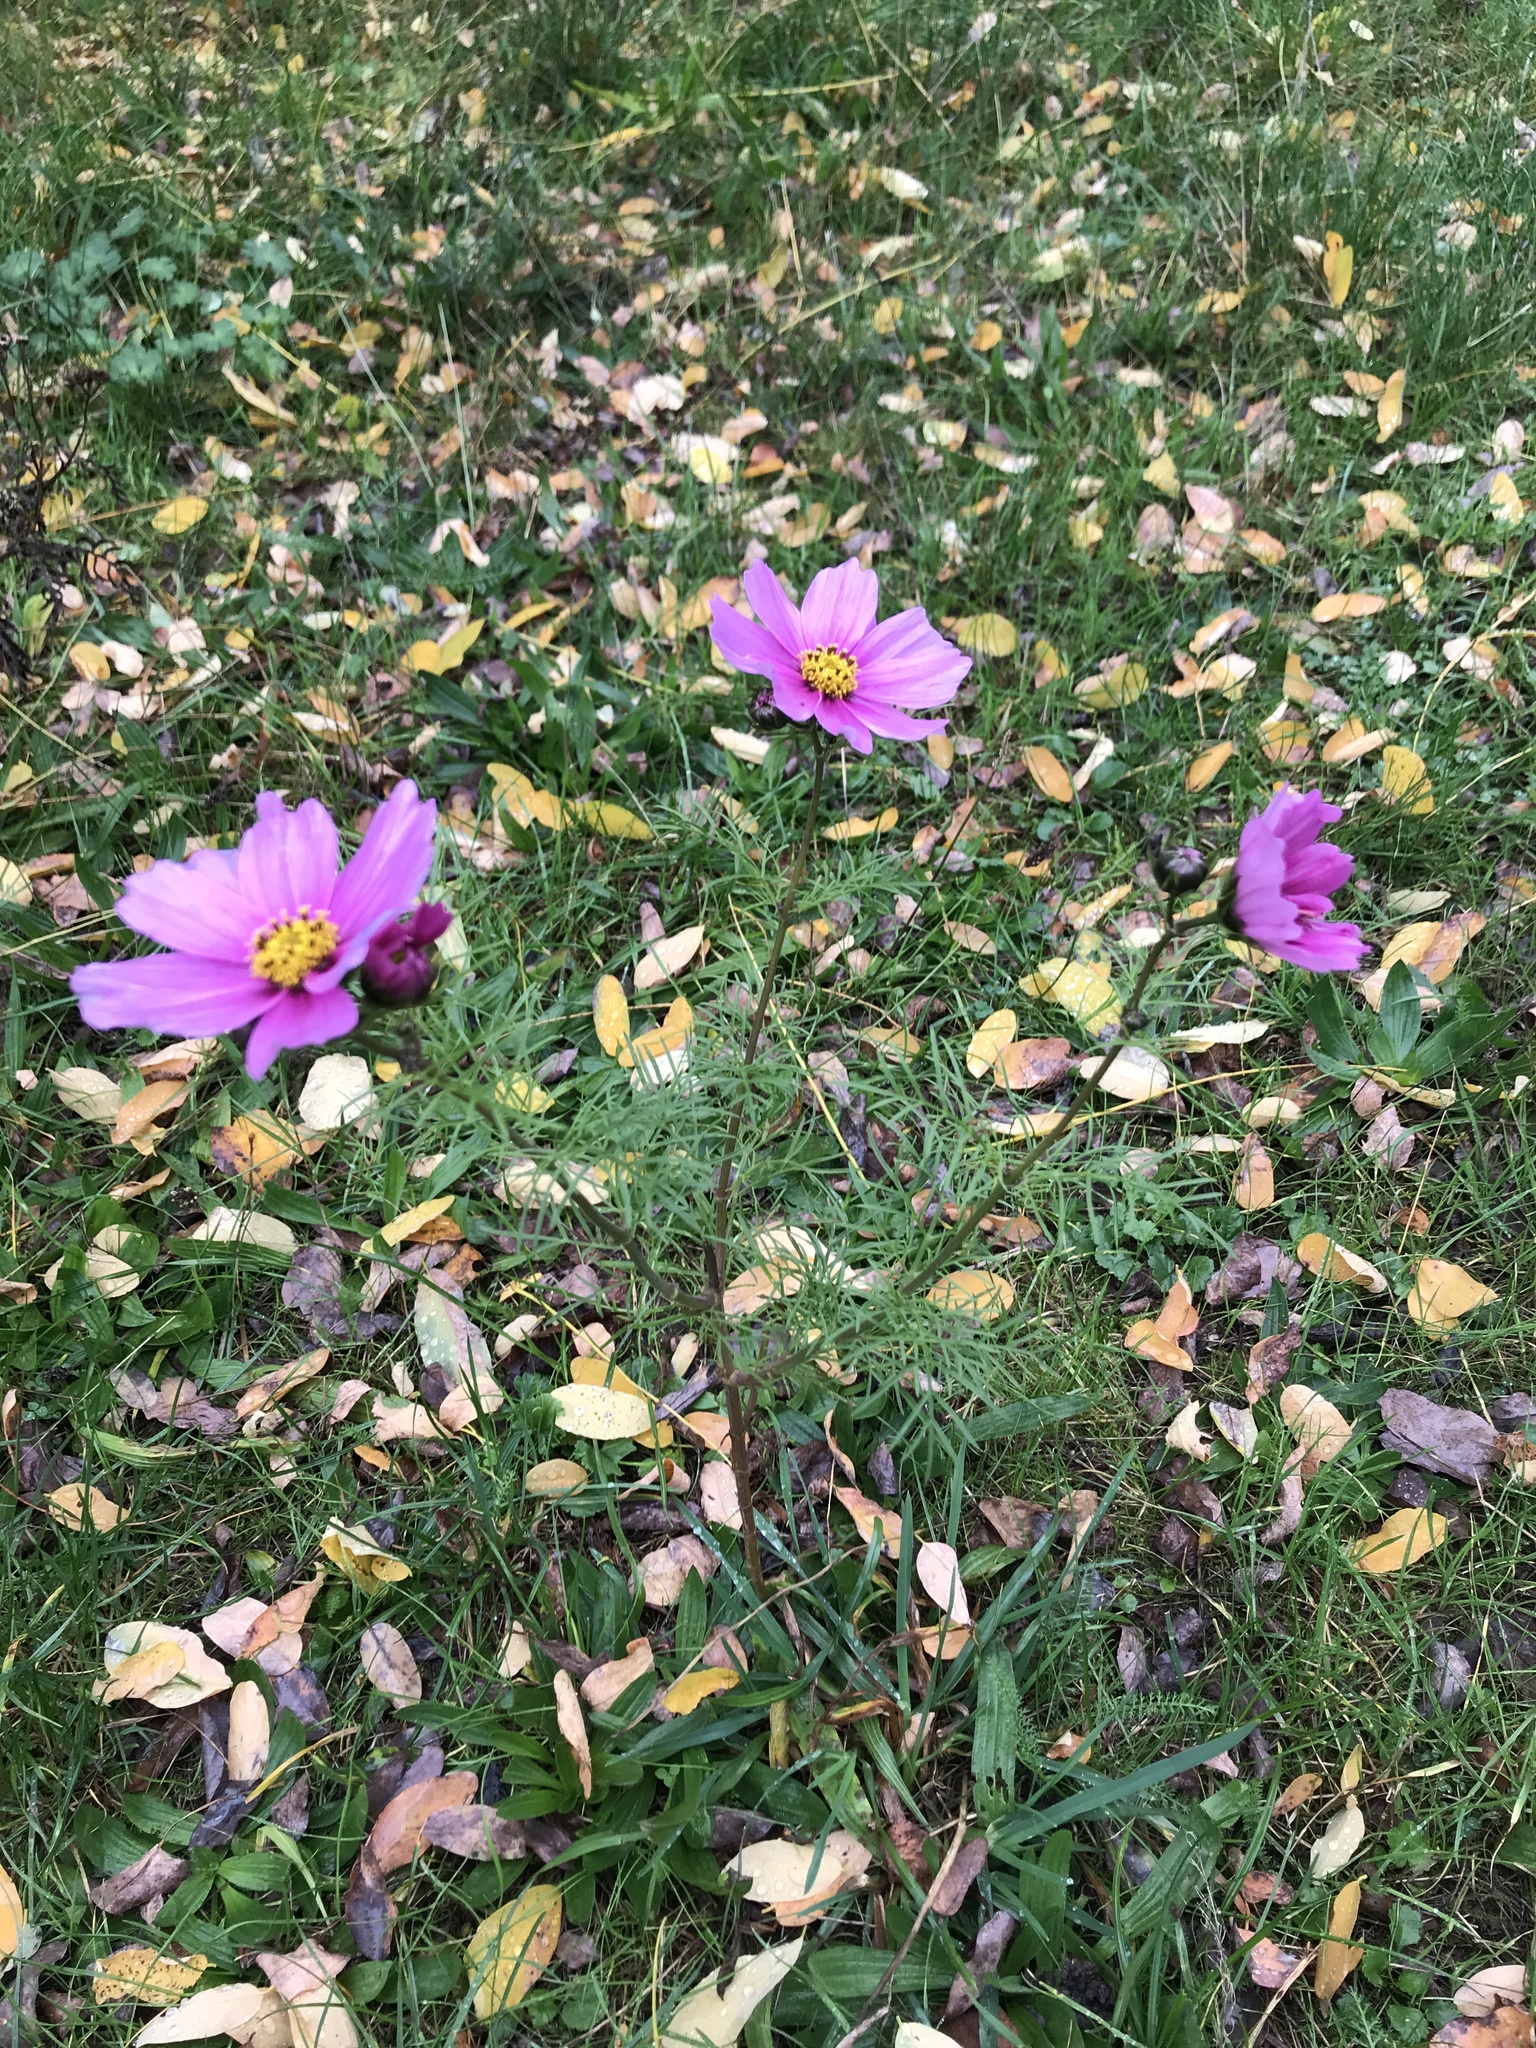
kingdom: Plantae
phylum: Tracheophyta
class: Magnoliopsida
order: Asterales
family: Asteraceae
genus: Cosmos
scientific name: Cosmos bipinnatus
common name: Garden cosmos
